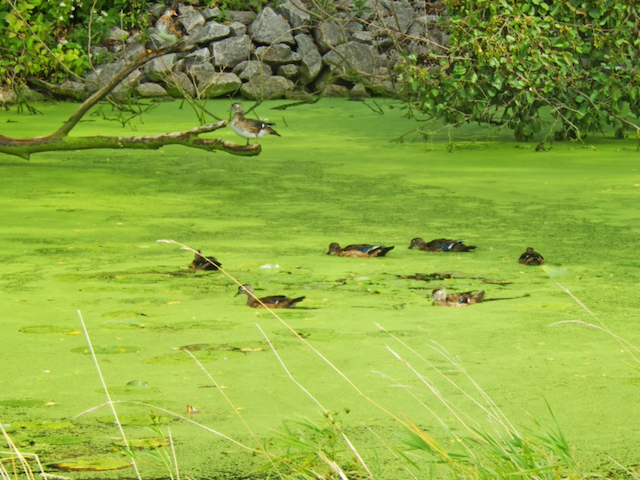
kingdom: Animalia
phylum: Chordata
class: Aves
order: Anseriformes
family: Anatidae
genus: Aix
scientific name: Aix sponsa
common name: Wood duck
